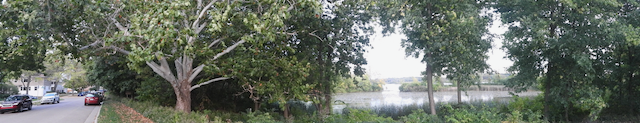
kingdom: Plantae
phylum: Tracheophyta
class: Magnoliopsida
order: Proteales
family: Platanaceae
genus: Platanus
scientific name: Platanus occidentalis
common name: American sycamore
